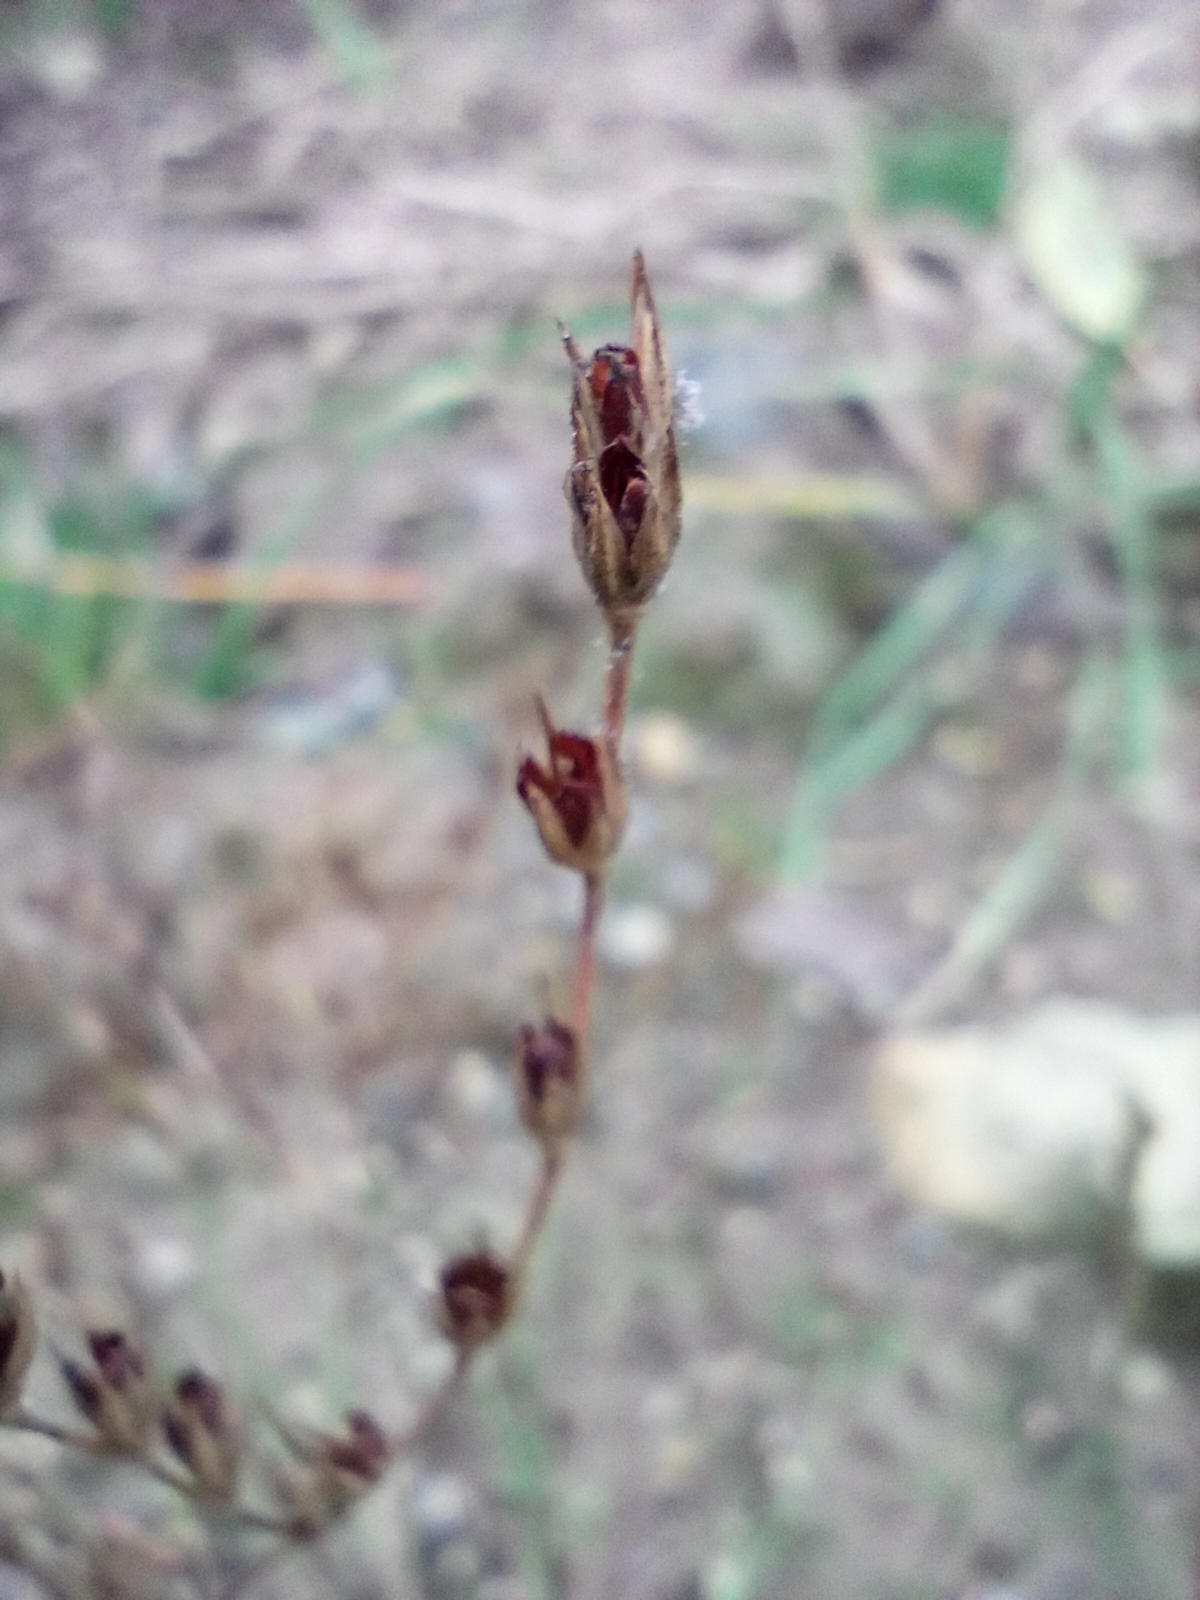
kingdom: Plantae
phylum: Tracheophyta
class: Liliopsida
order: Poales
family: Juncaceae
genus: Juncus
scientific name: Juncus bufonius
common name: Toad rush
